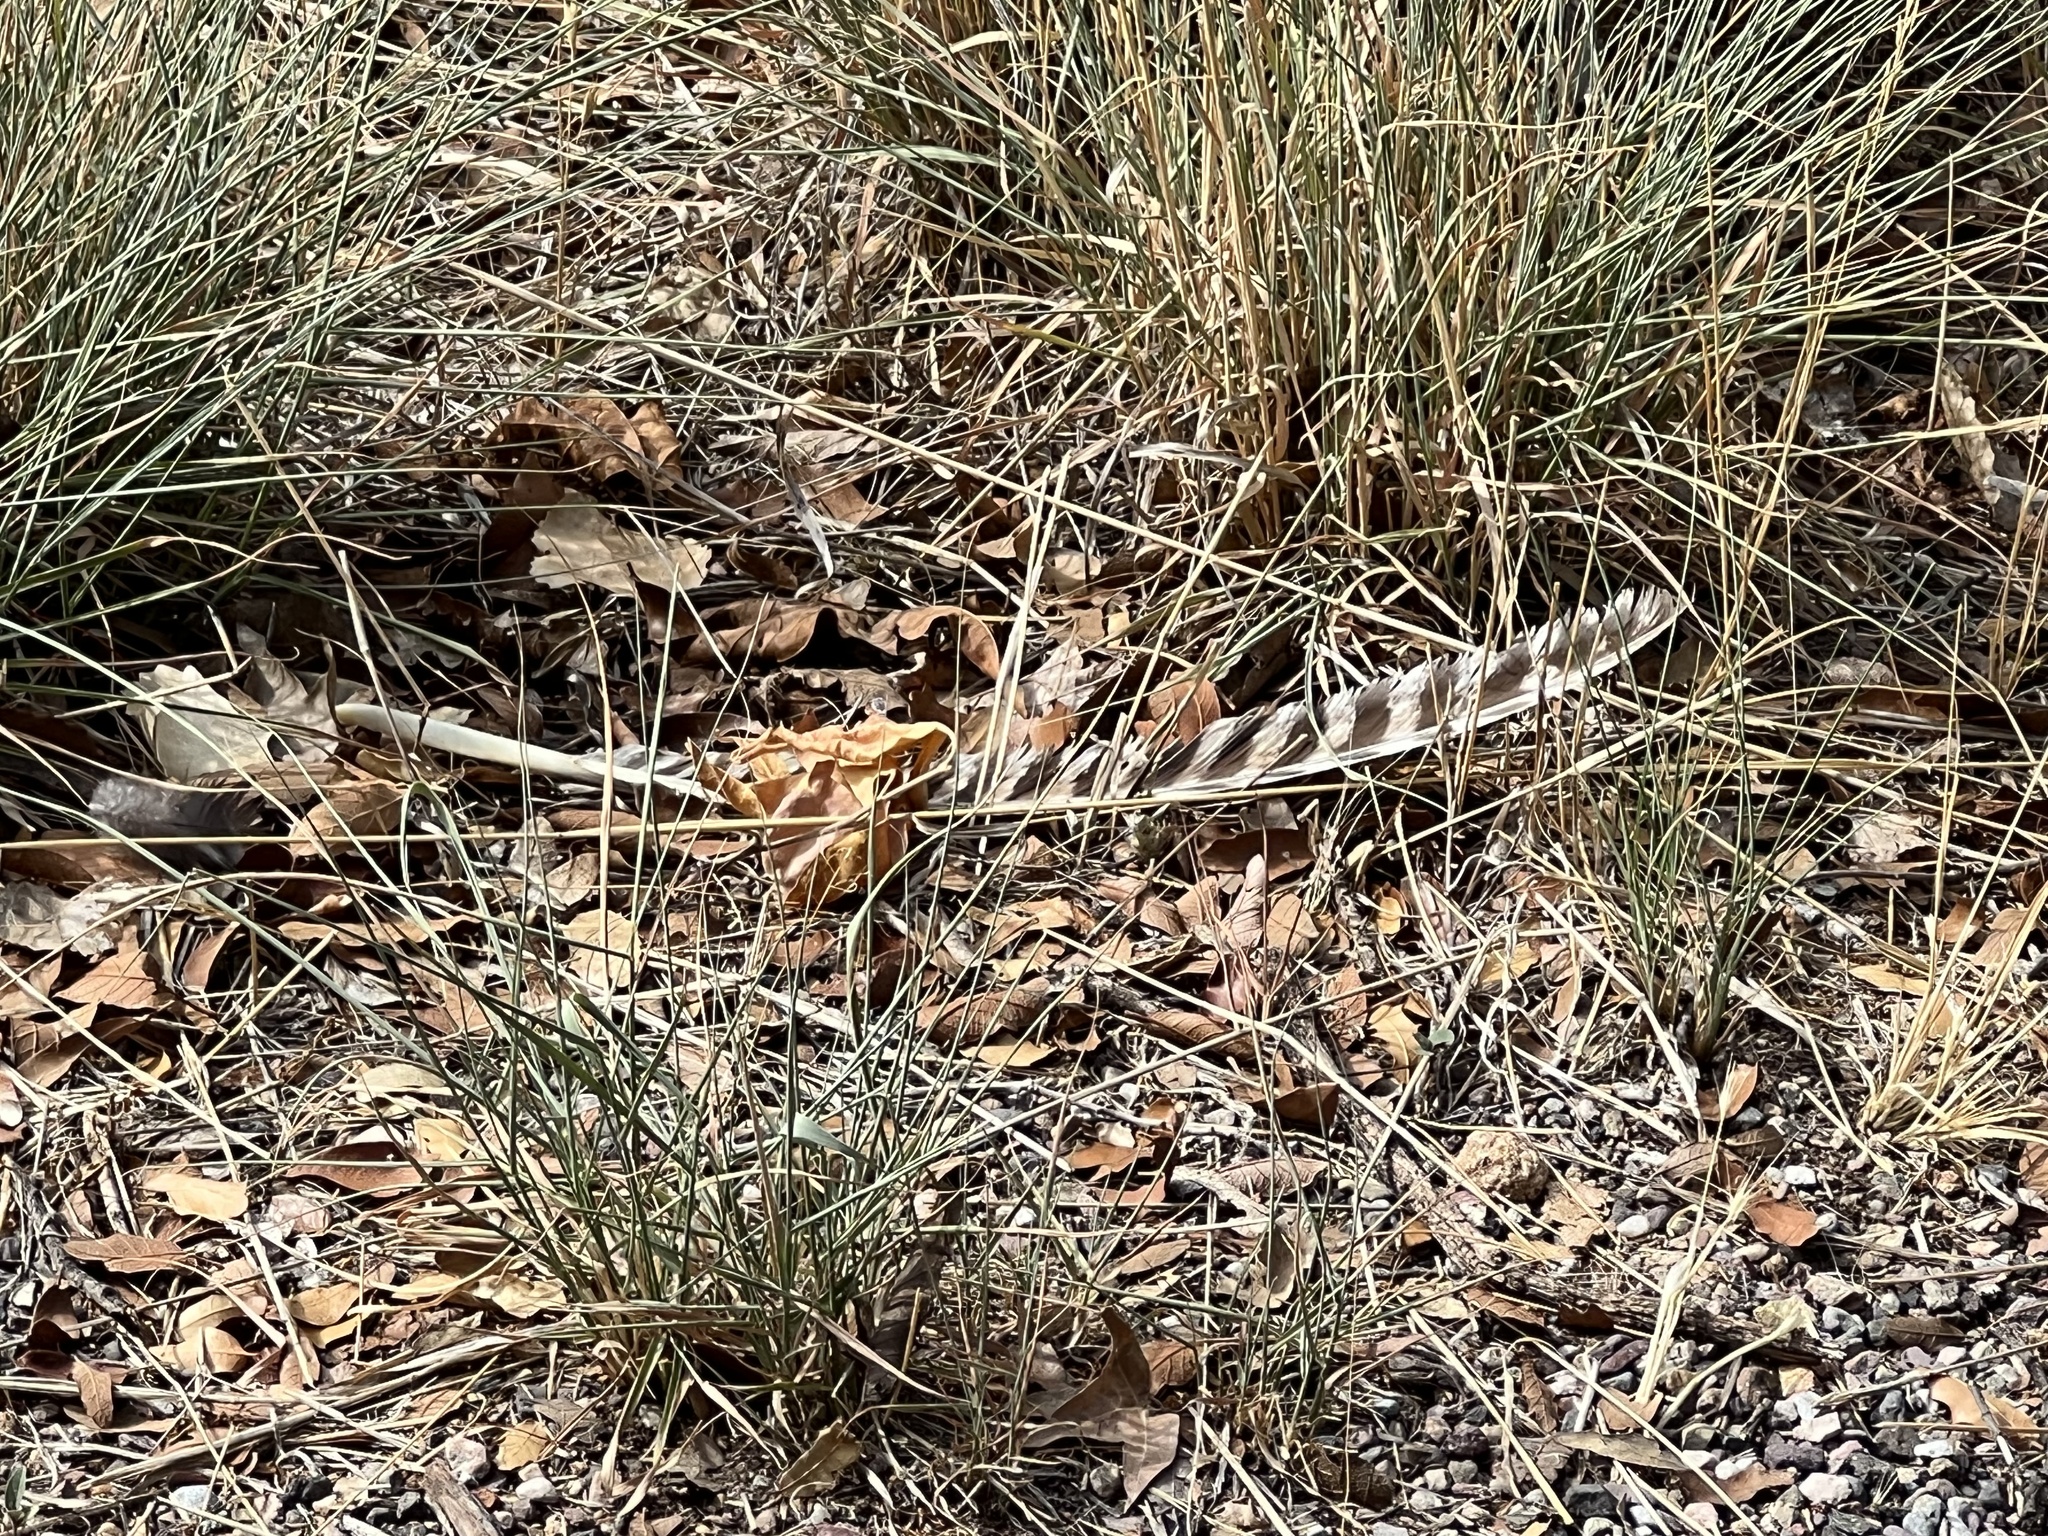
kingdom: Animalia
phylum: Chordata
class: Aves
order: Galliformes
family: Phasianidae
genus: Meleagris
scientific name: Meleagris gallopavo
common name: Wild turkey
